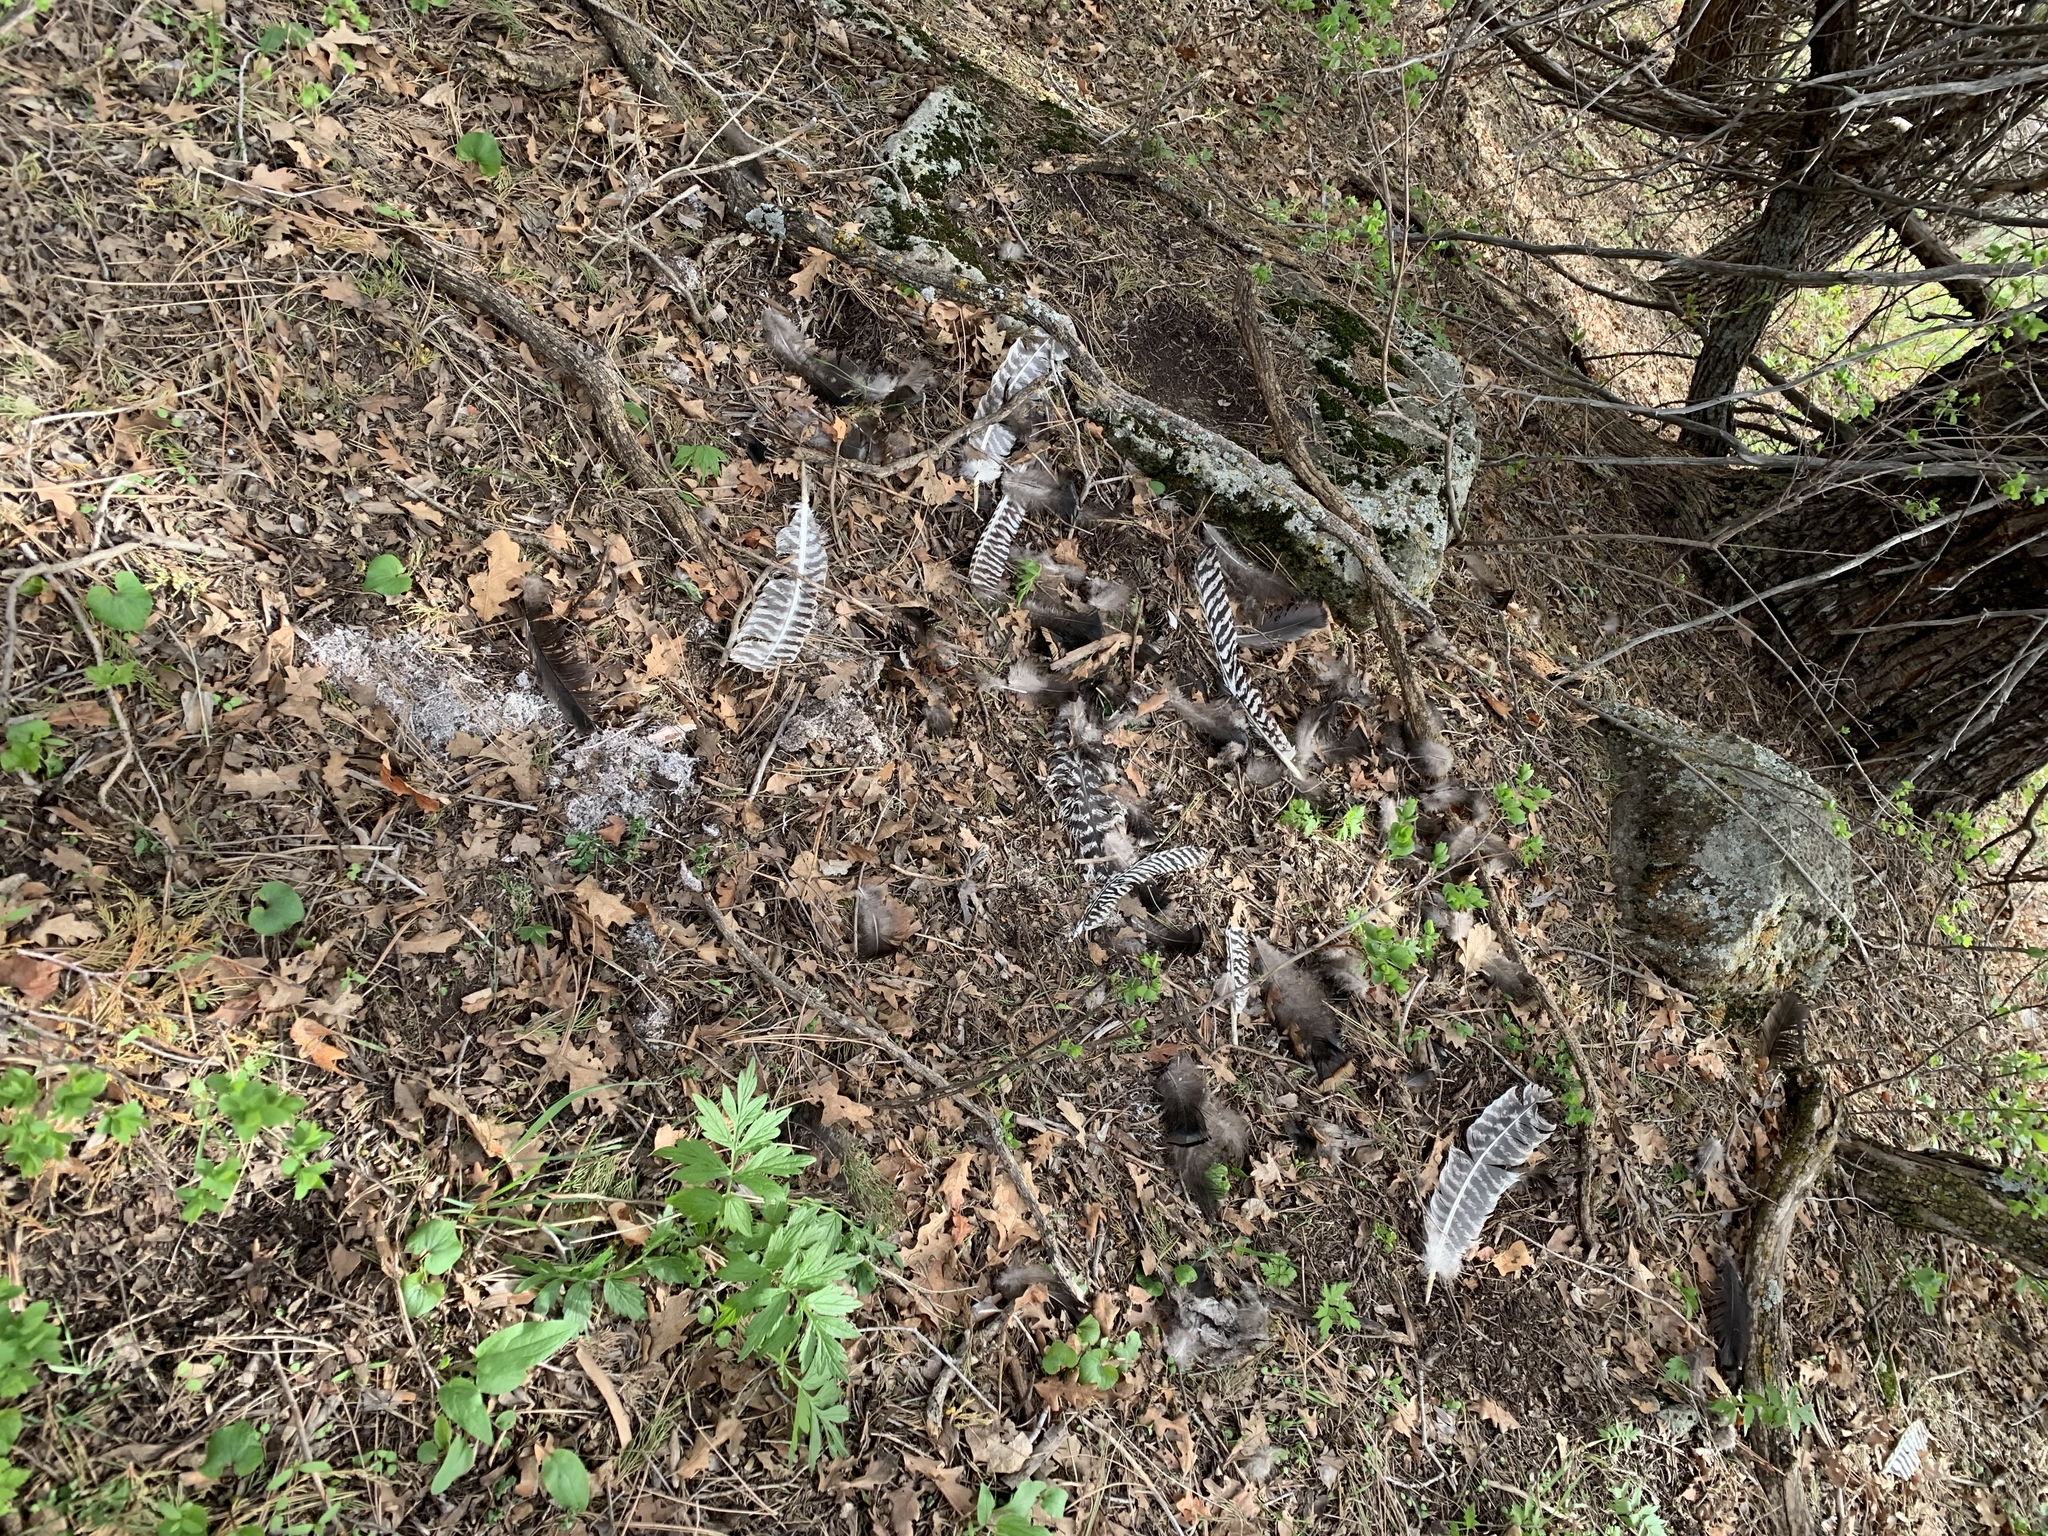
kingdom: Animalia
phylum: Chordata
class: Aves
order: Galliformes
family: Phasianidae
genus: Meleagris
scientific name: Meleagris gallopavo
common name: Wild turkey
